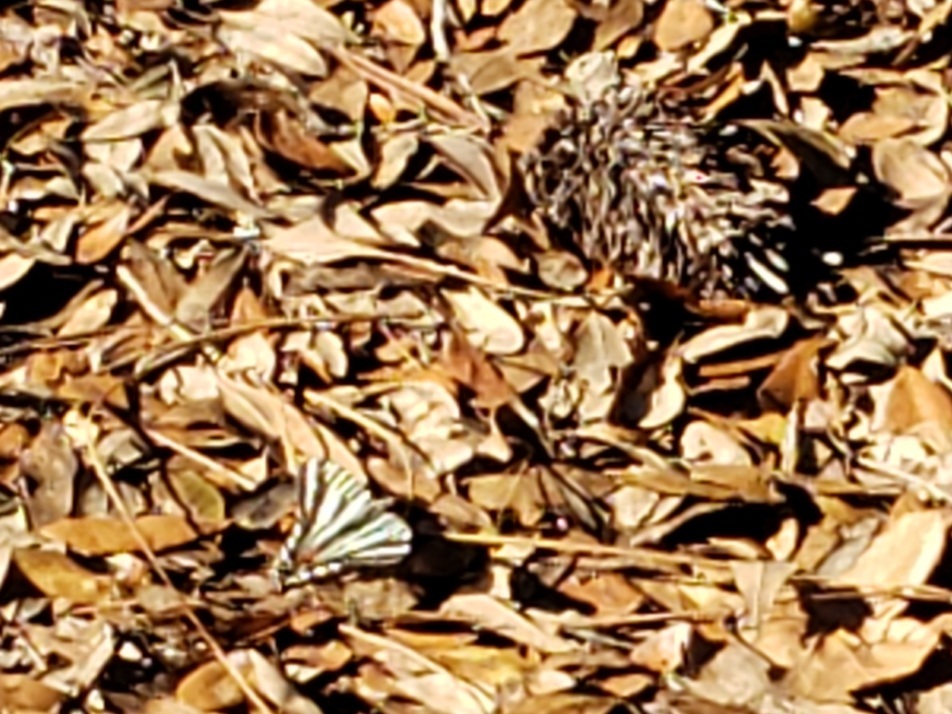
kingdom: Animalia
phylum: Arthropoda
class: Insecta
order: Lepidoptera
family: Papilionidae
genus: Protographium
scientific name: Protographium marcellus
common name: Zebra swallowtail
